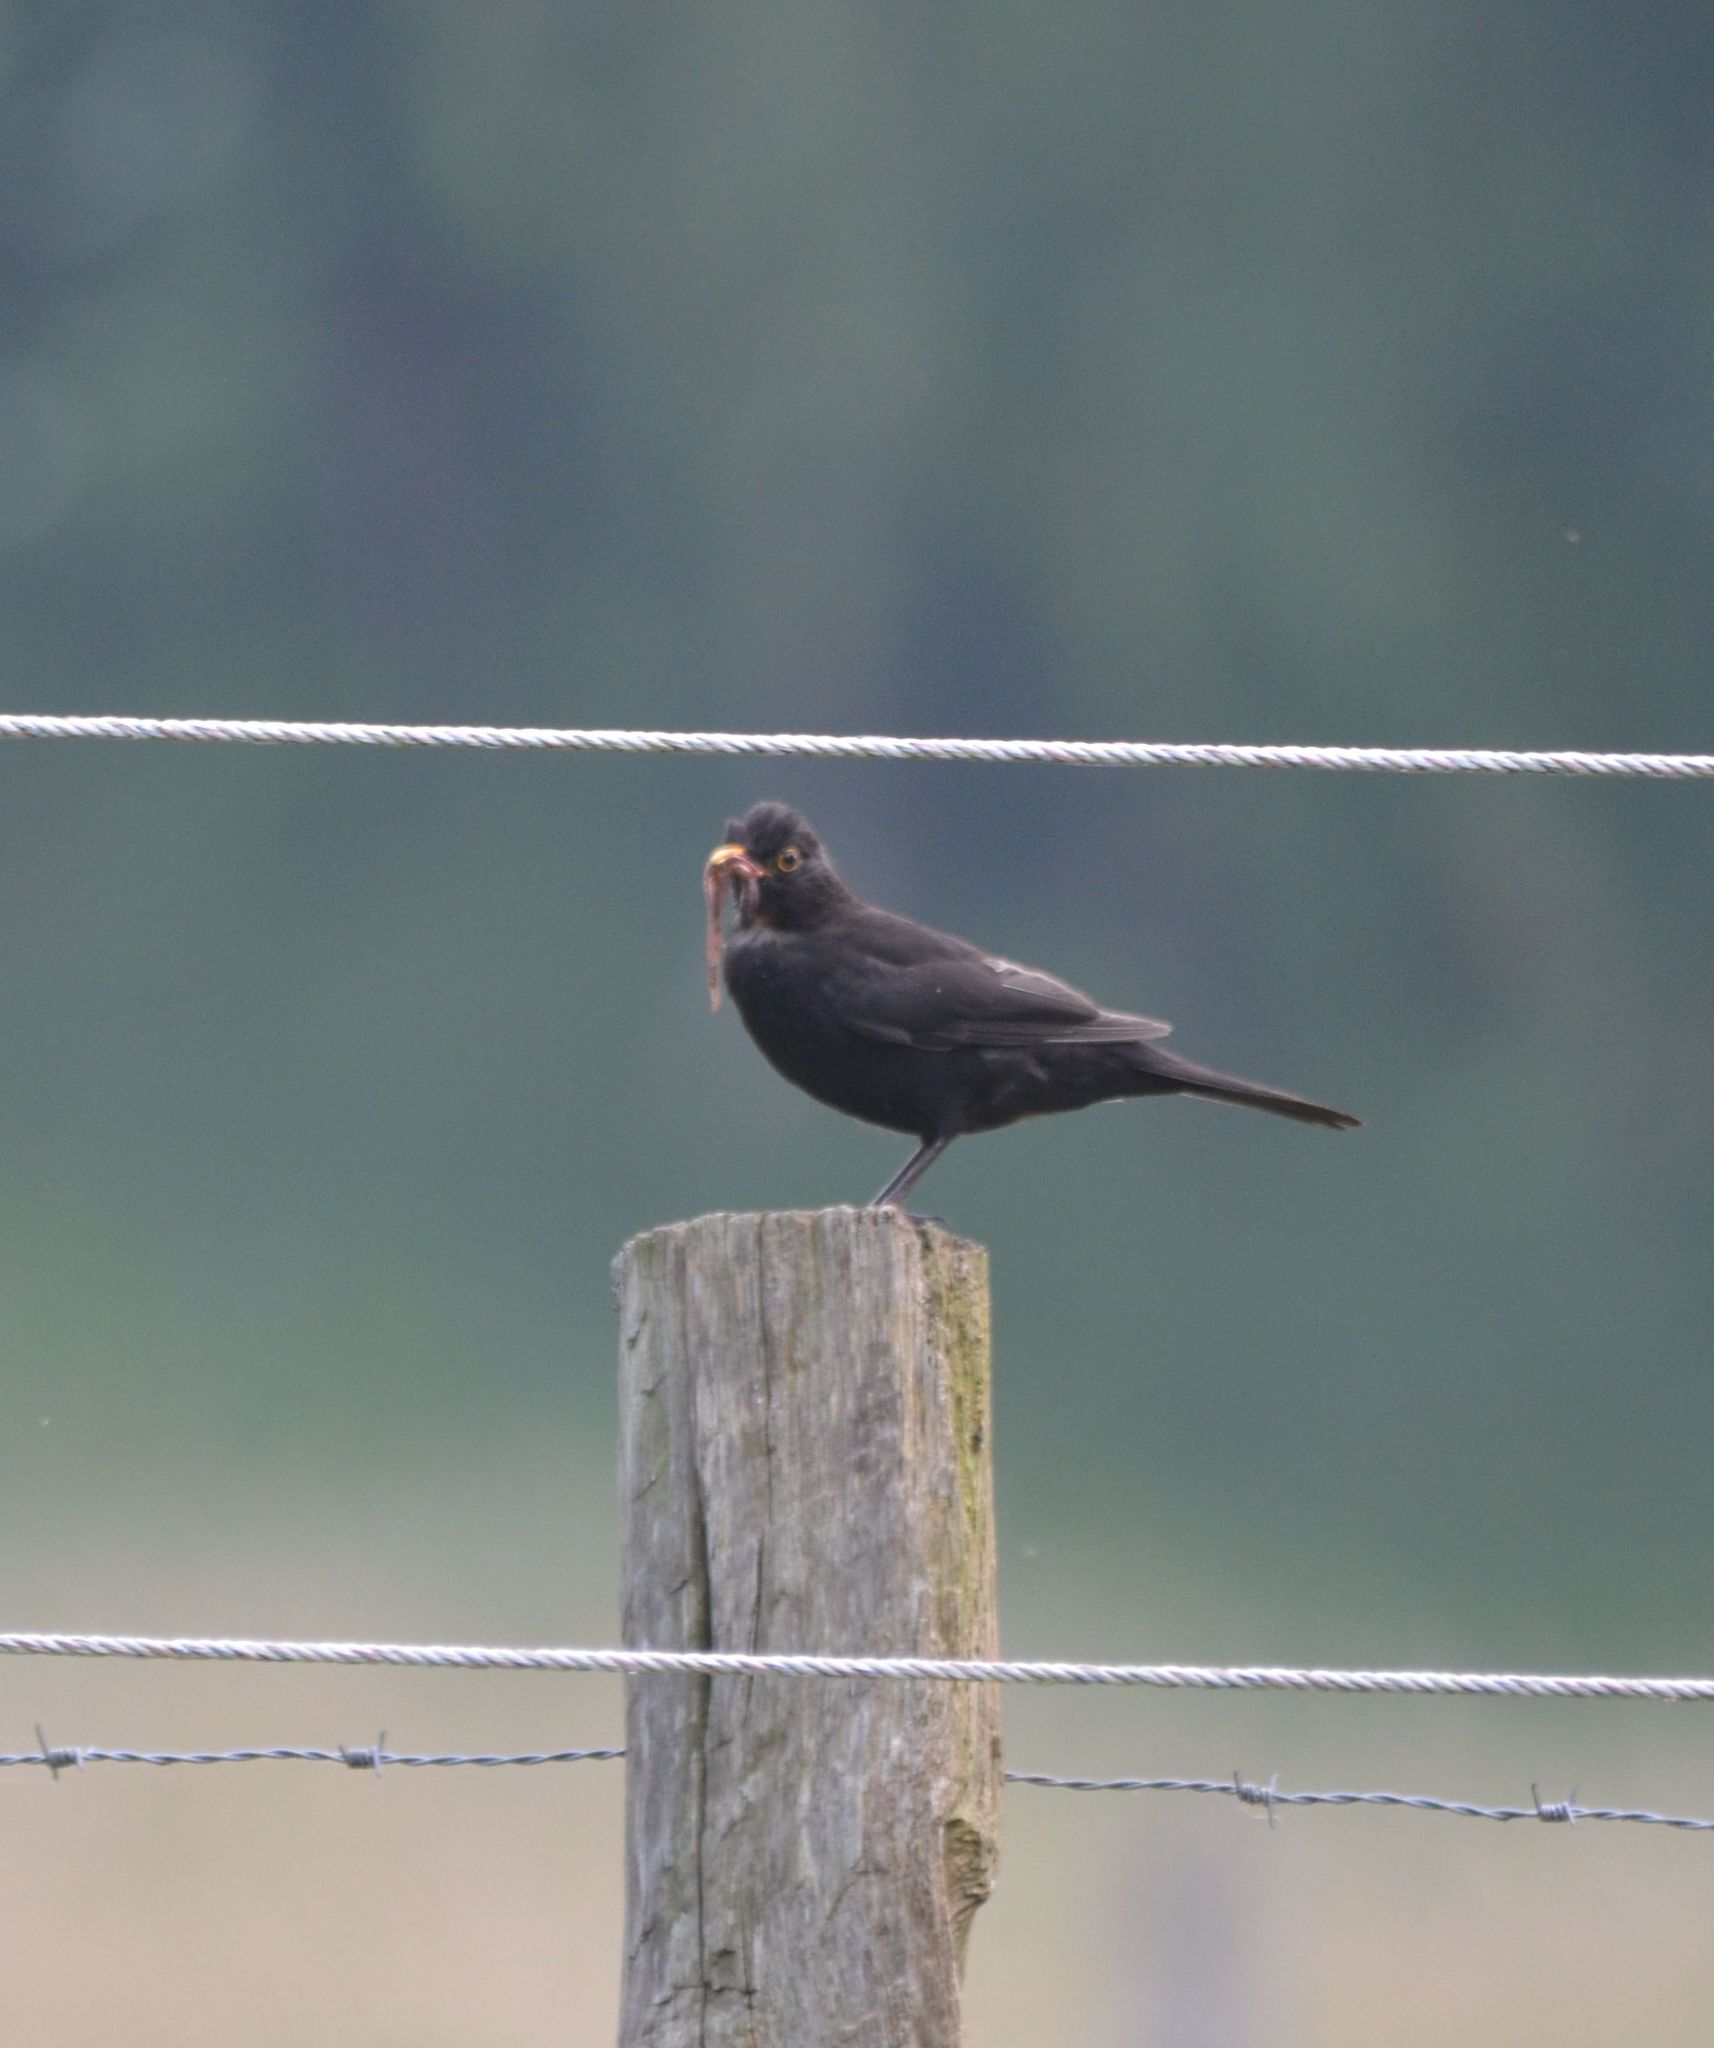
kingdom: Animalia
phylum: Chordata
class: Aves
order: Passeriformes
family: Turdidae
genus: Turdus
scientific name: Turdus merula
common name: Common blackbird
